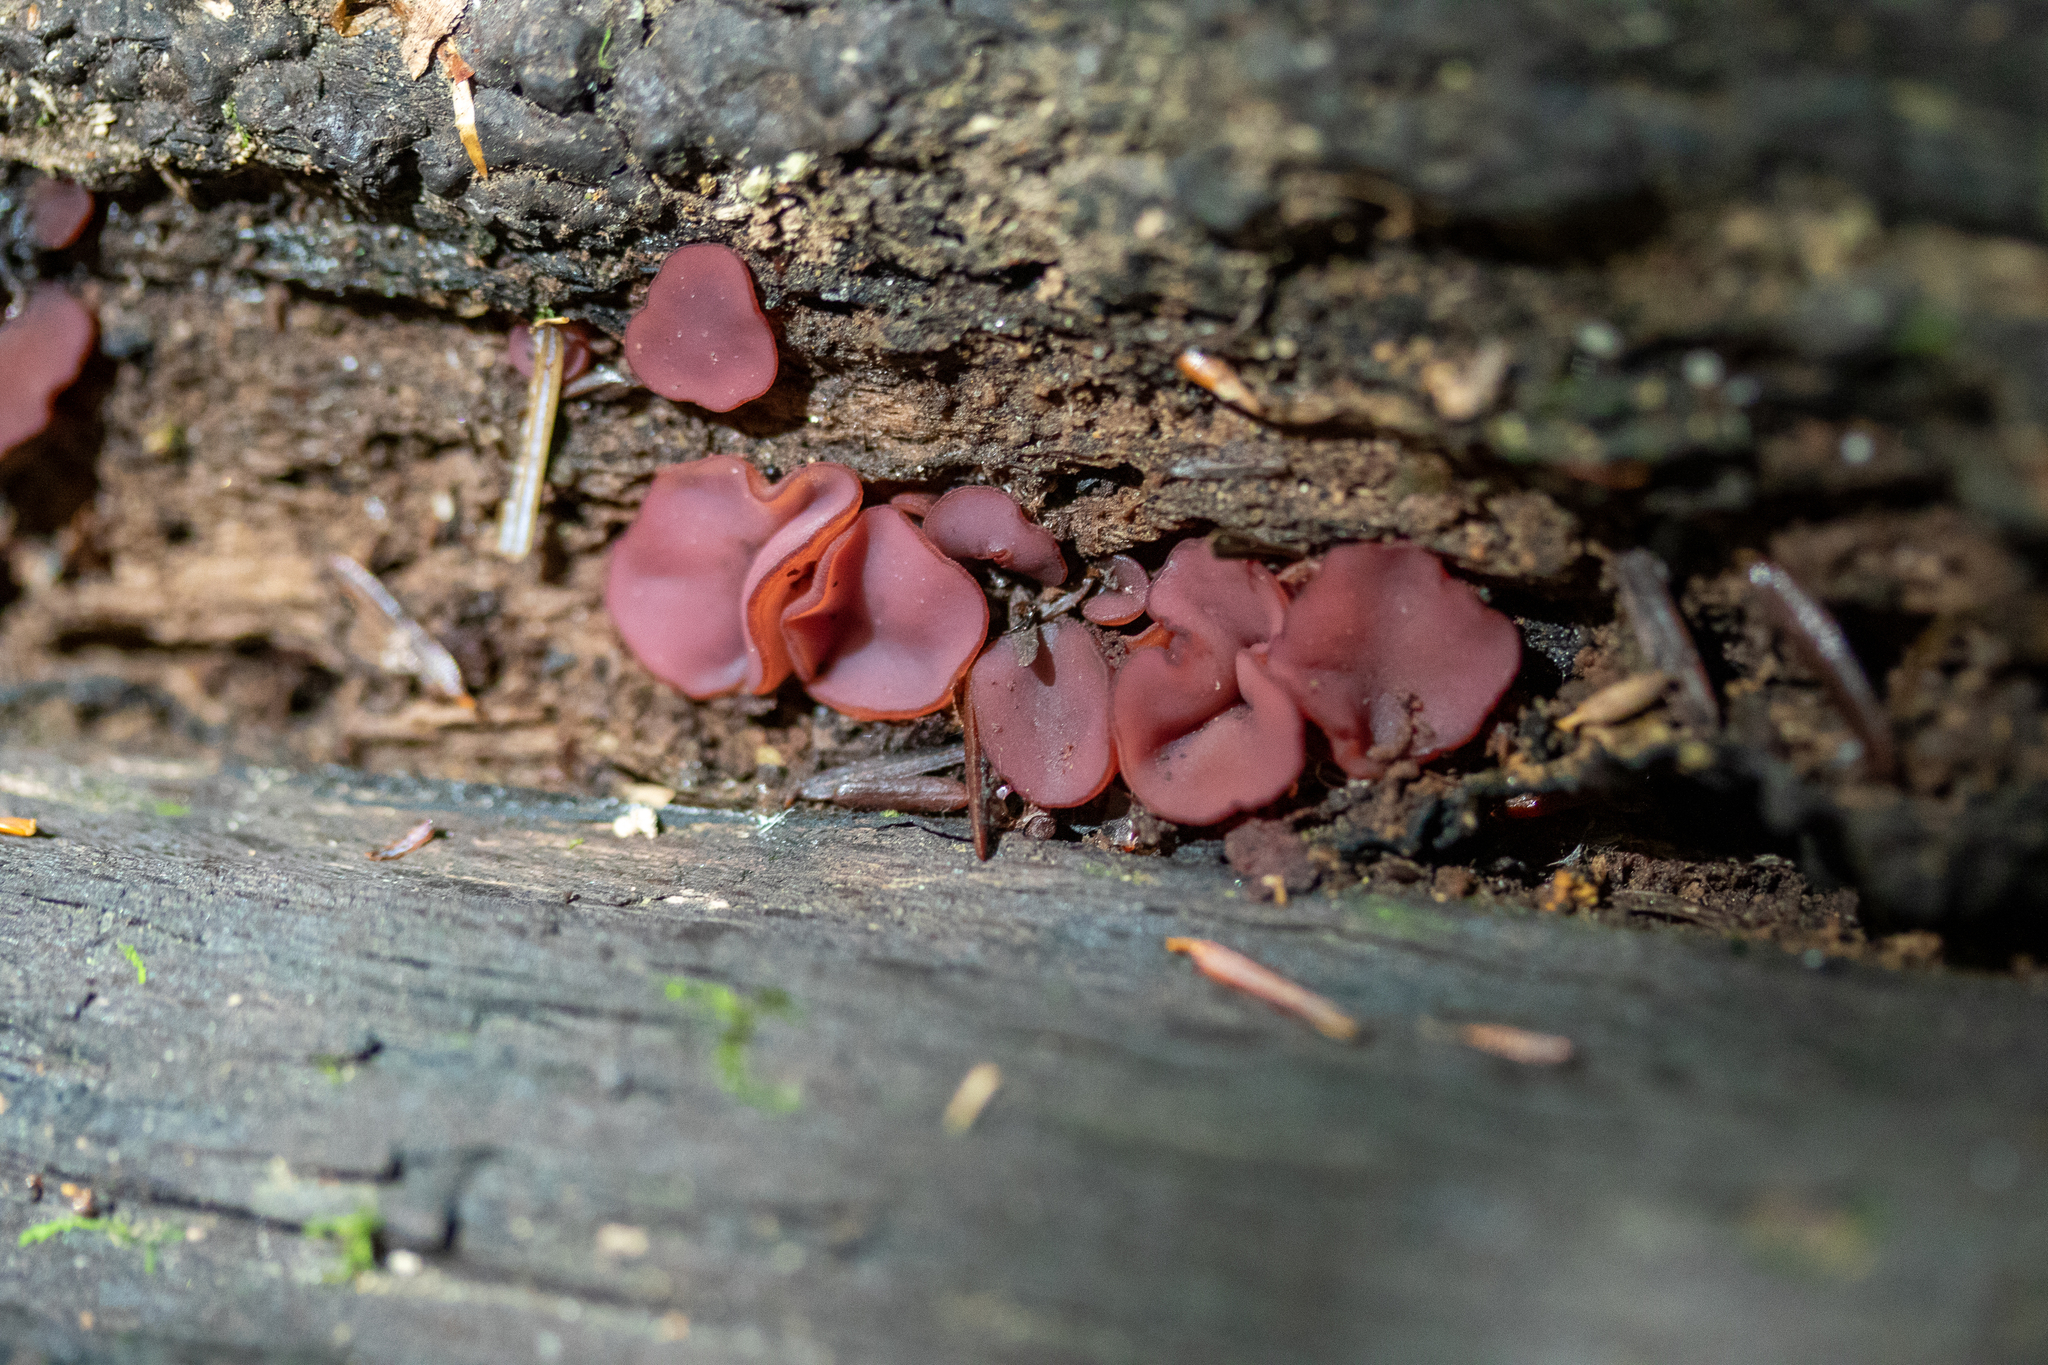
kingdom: Fungi
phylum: Ascomycota
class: Leotiomycetes
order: Helotiales
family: Gelatinodiscaceae
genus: Ascocoryne
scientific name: Ascocoryne sarcoides
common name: Purple jellydisc
